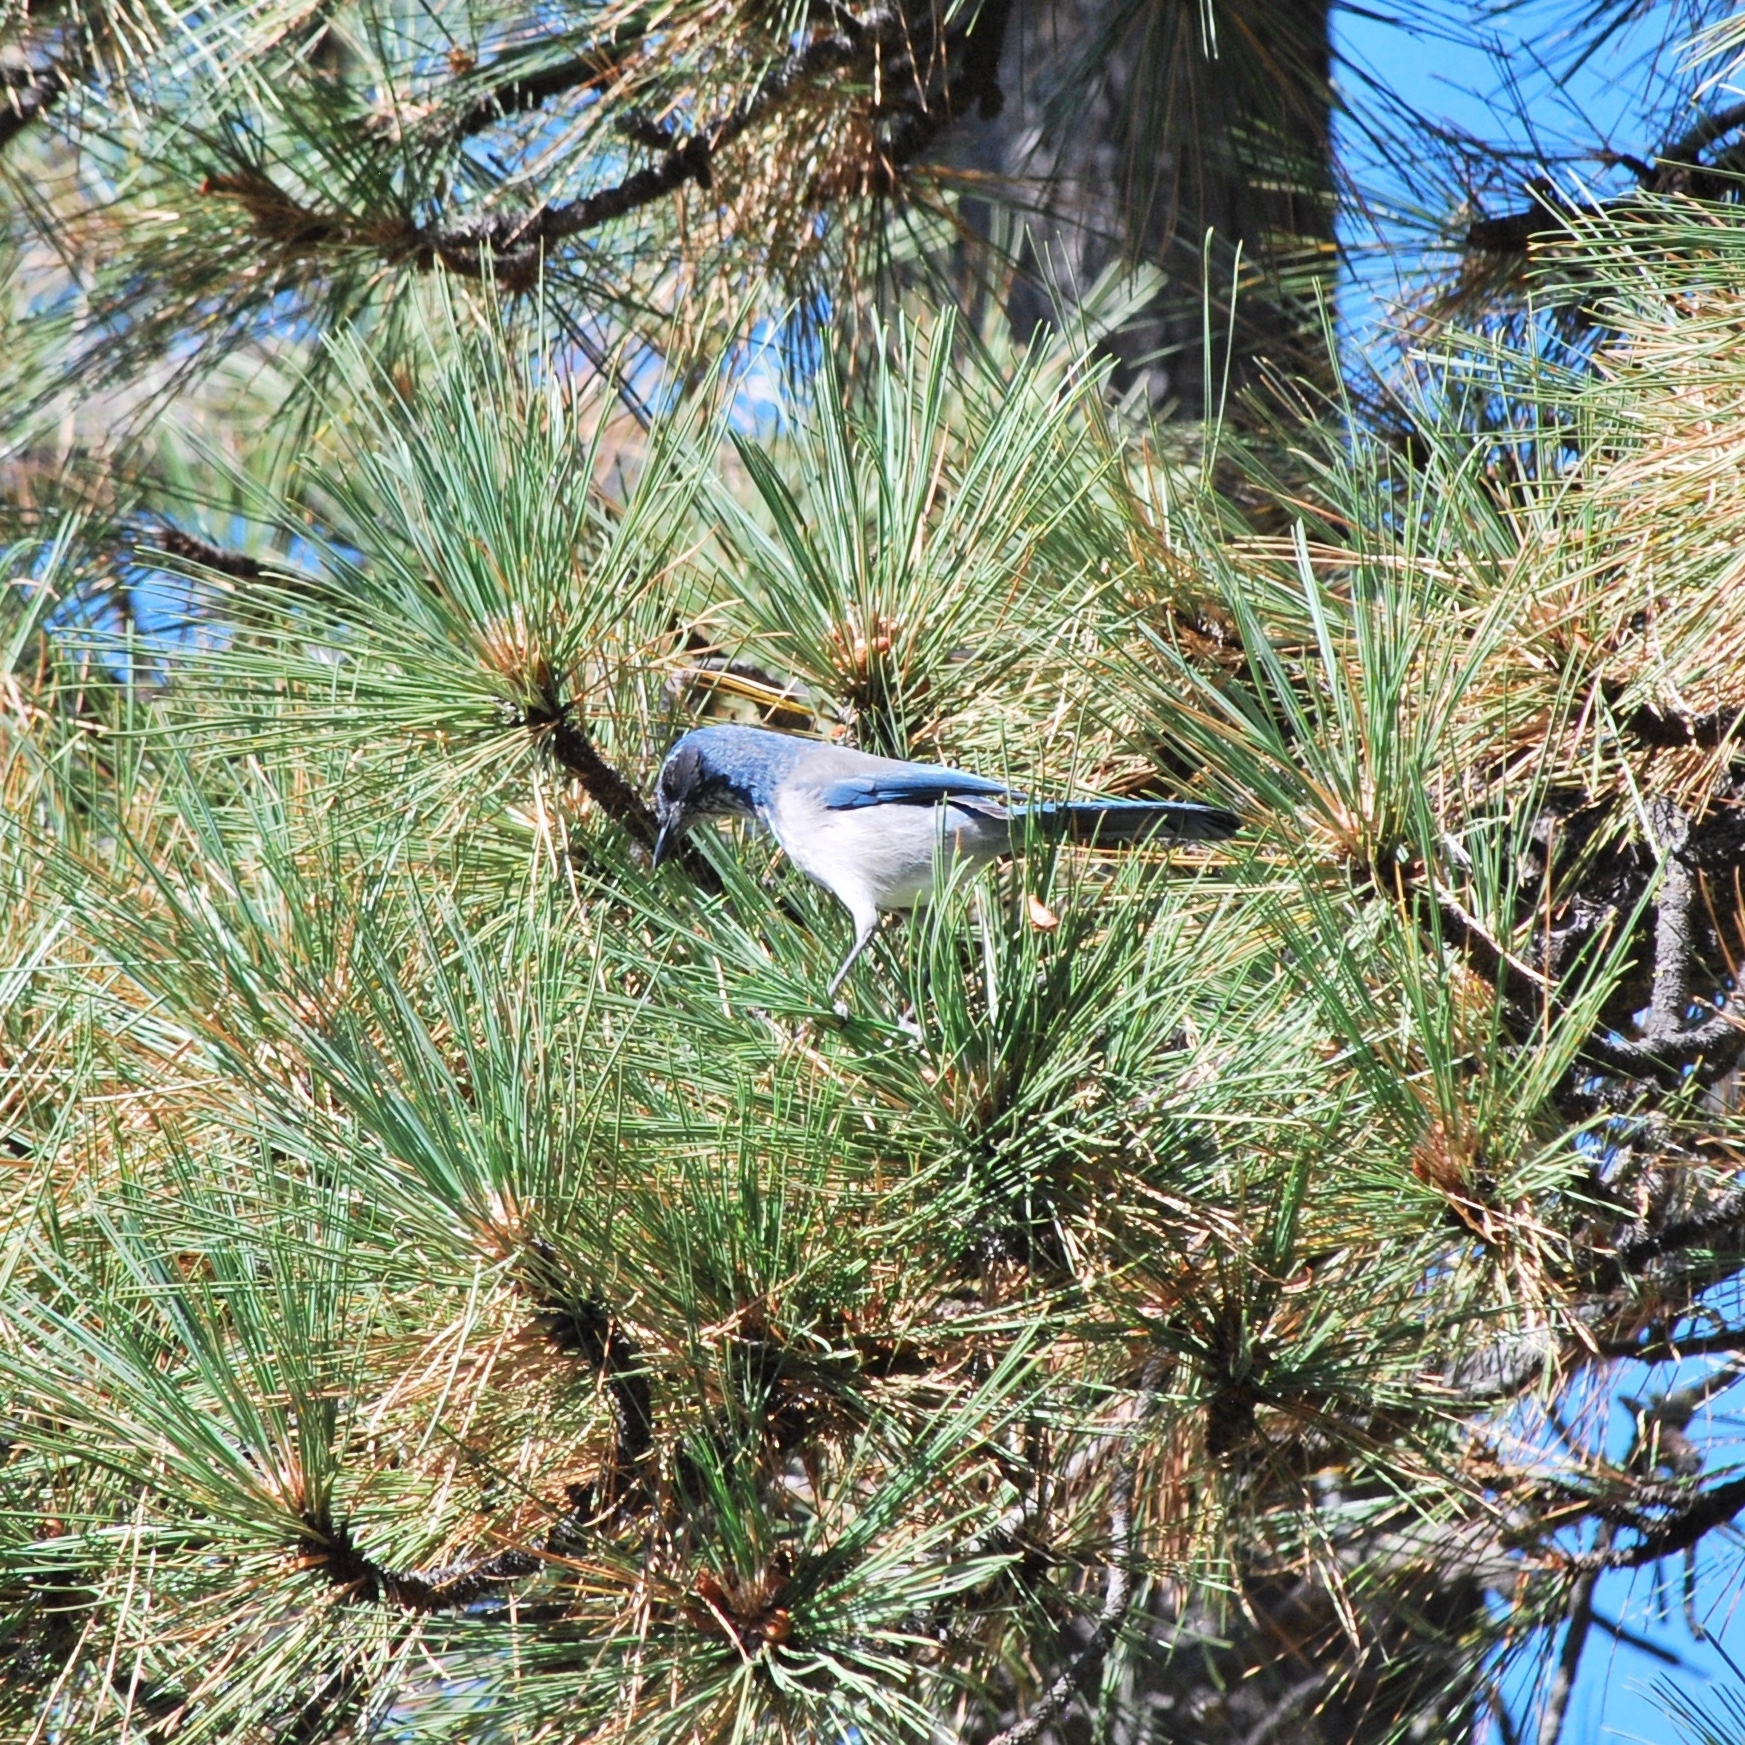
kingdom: Animalia
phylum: Chordata
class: Aves
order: Passeriformes
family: Corvidae
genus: Aphelocoma
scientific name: Aphelocoma californica
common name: California scrub-jay
